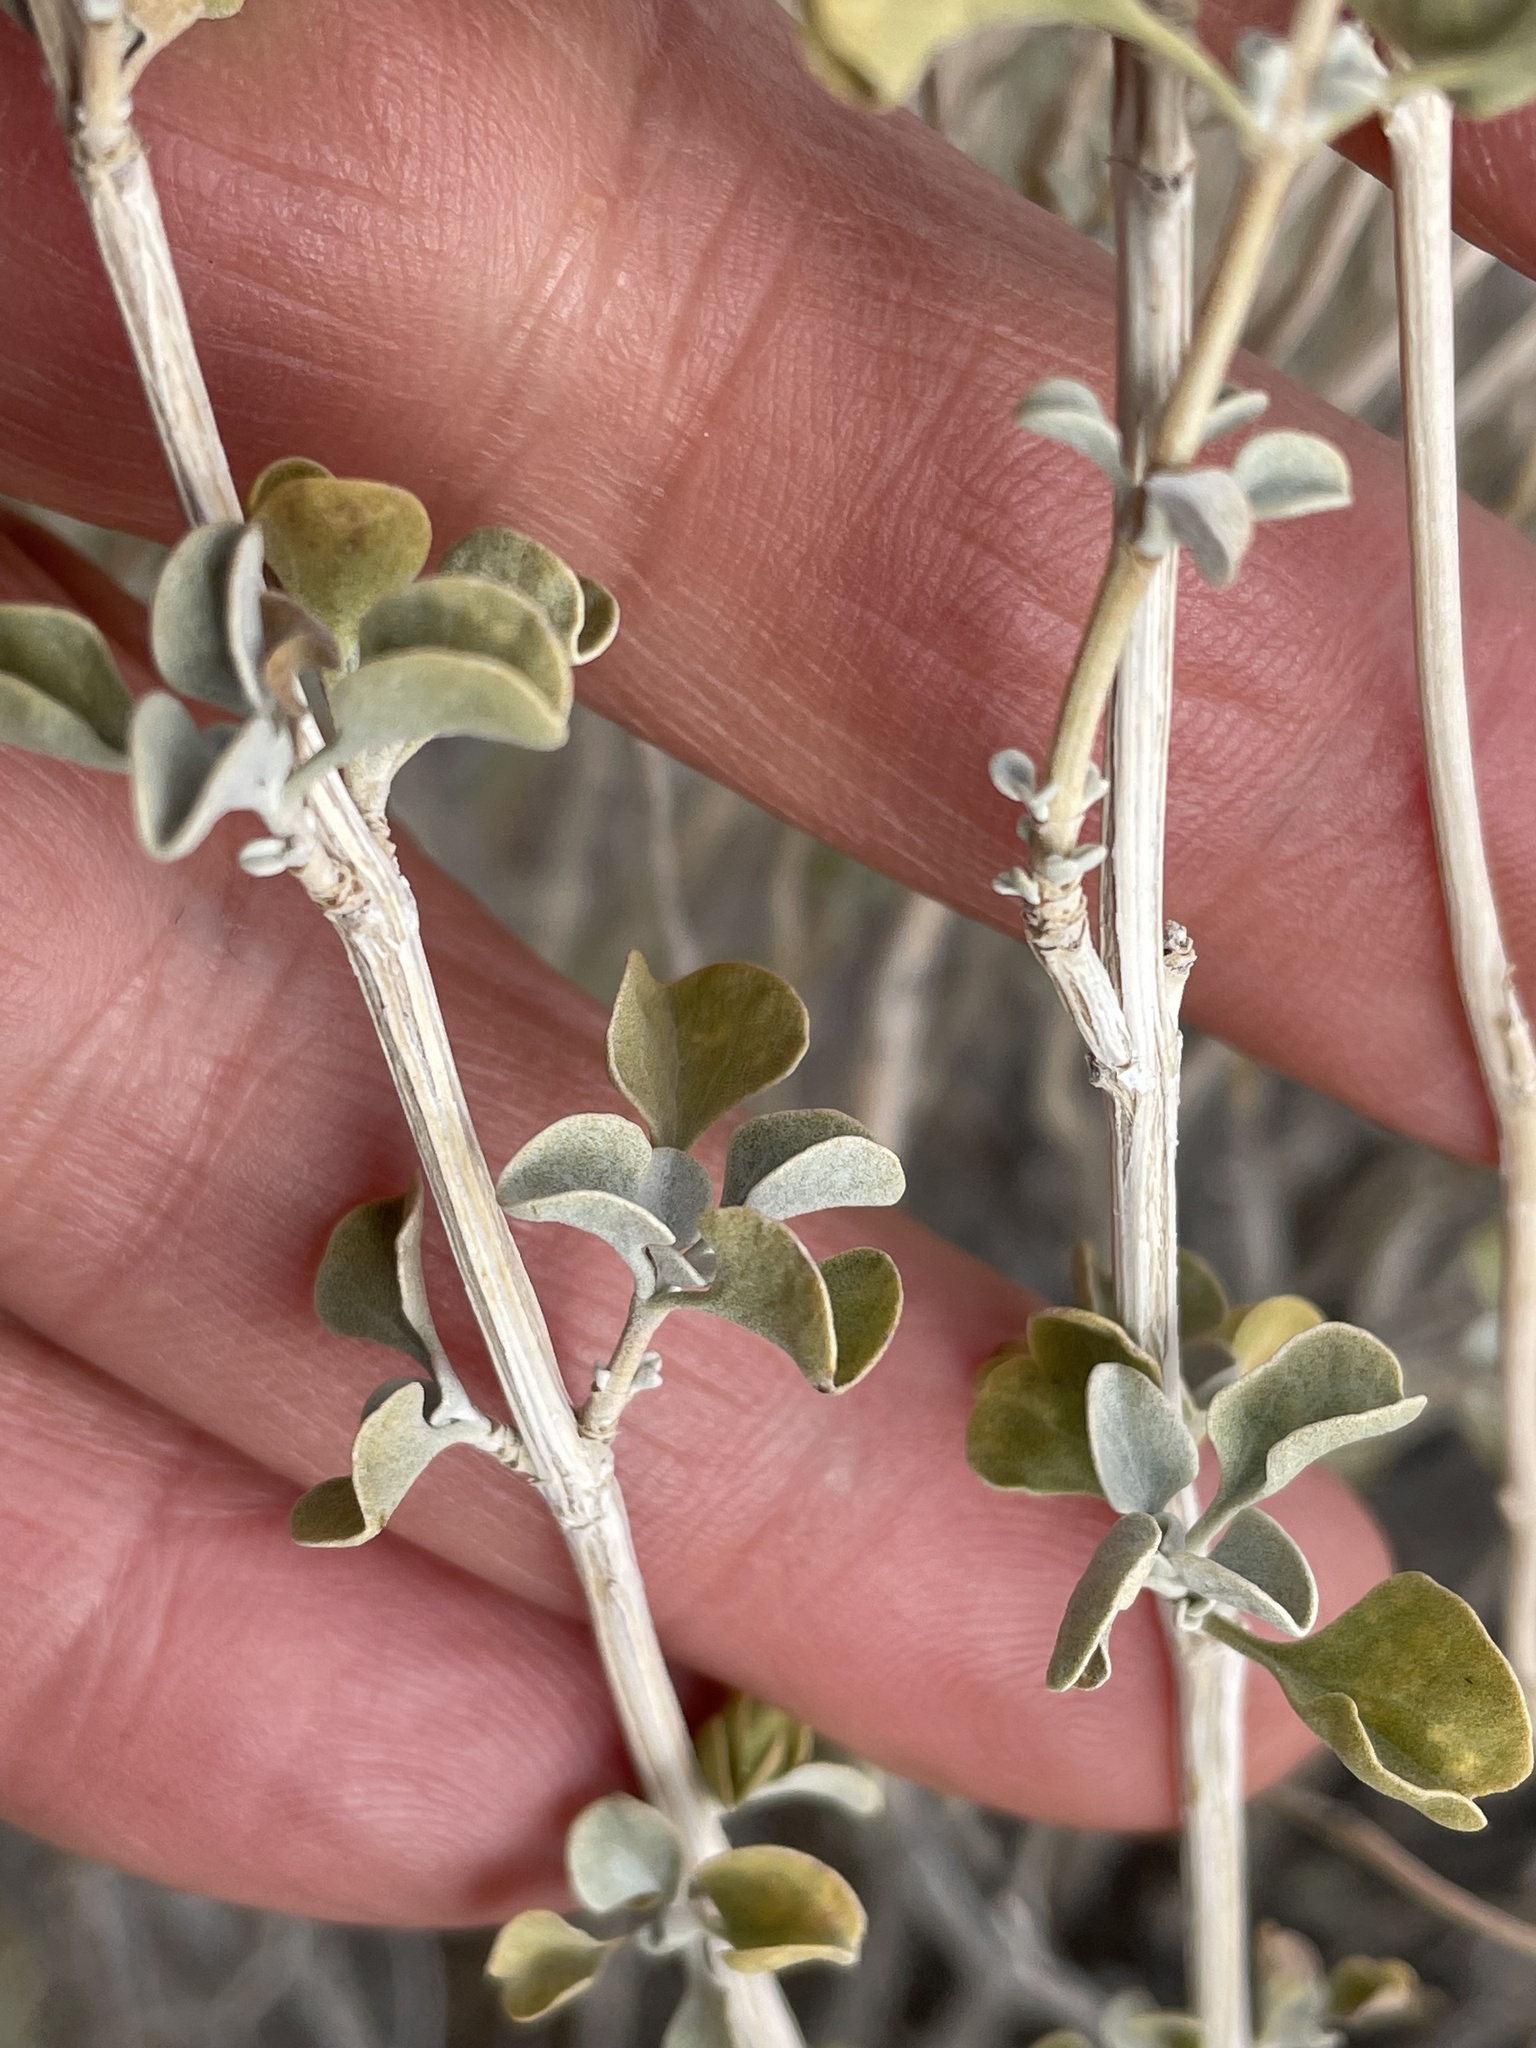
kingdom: Plantae
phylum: Tracheophyta
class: Magnoliopsida
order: Lamiales
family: Lamiaceae
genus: Salvia
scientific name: Salvia dorrii
